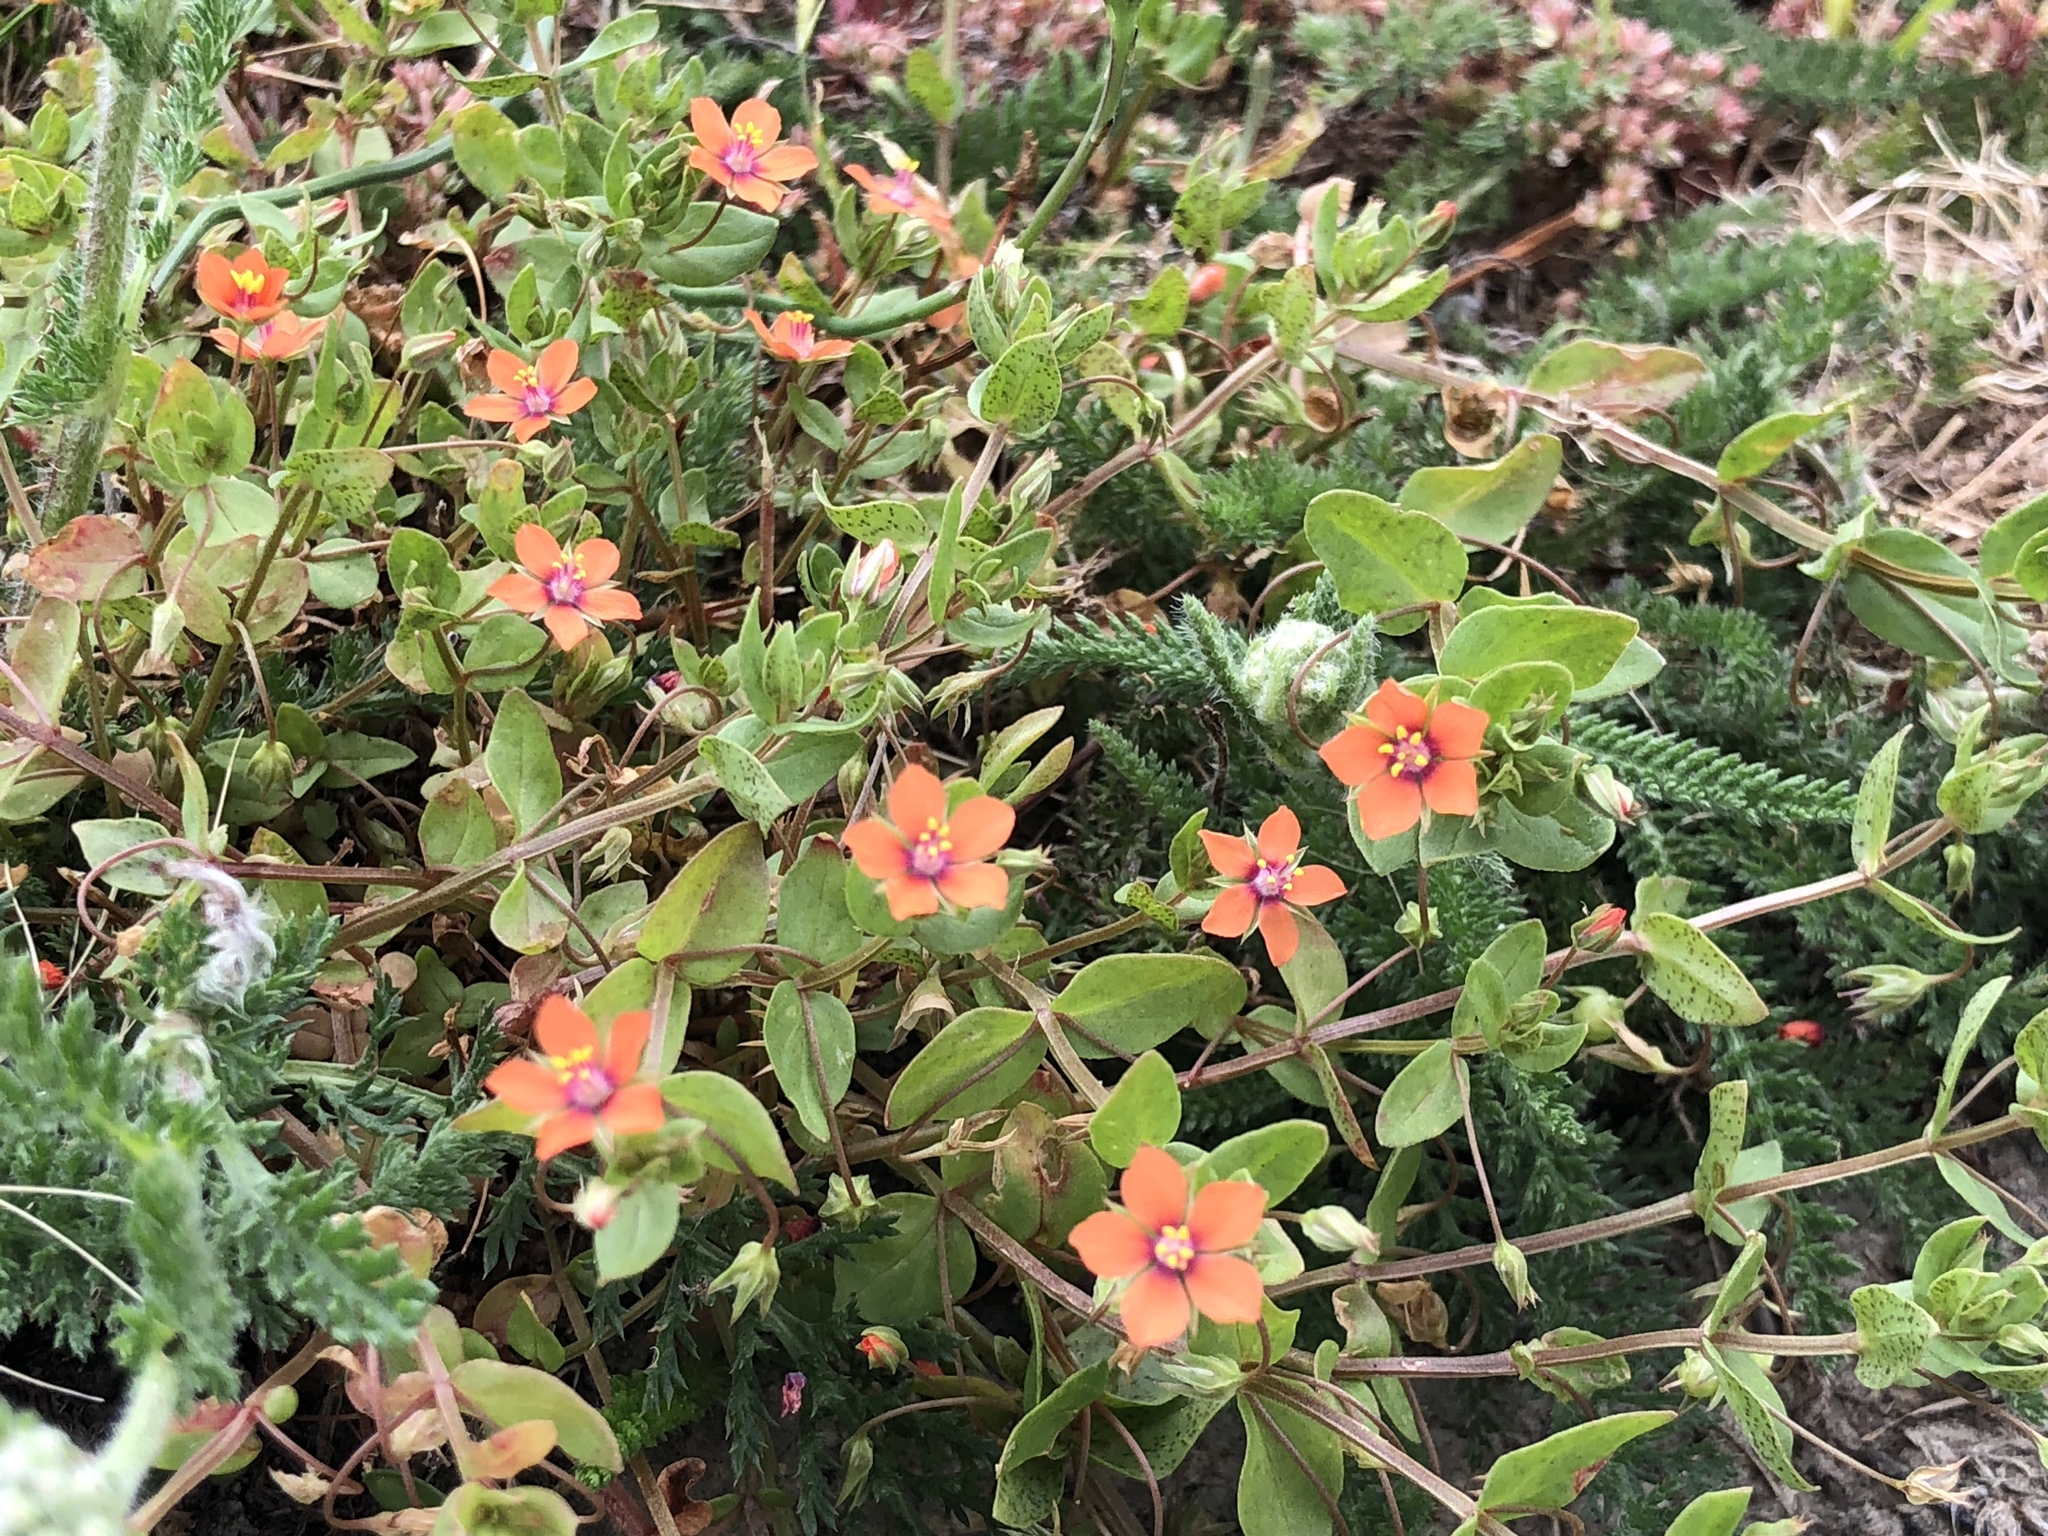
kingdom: Plantae
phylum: Tracheophyta
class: Magnoliopsida
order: Ericales
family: Primulaceae
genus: Lysimachia
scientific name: Lysimachia arvensis
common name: Scarlet pimpernel
